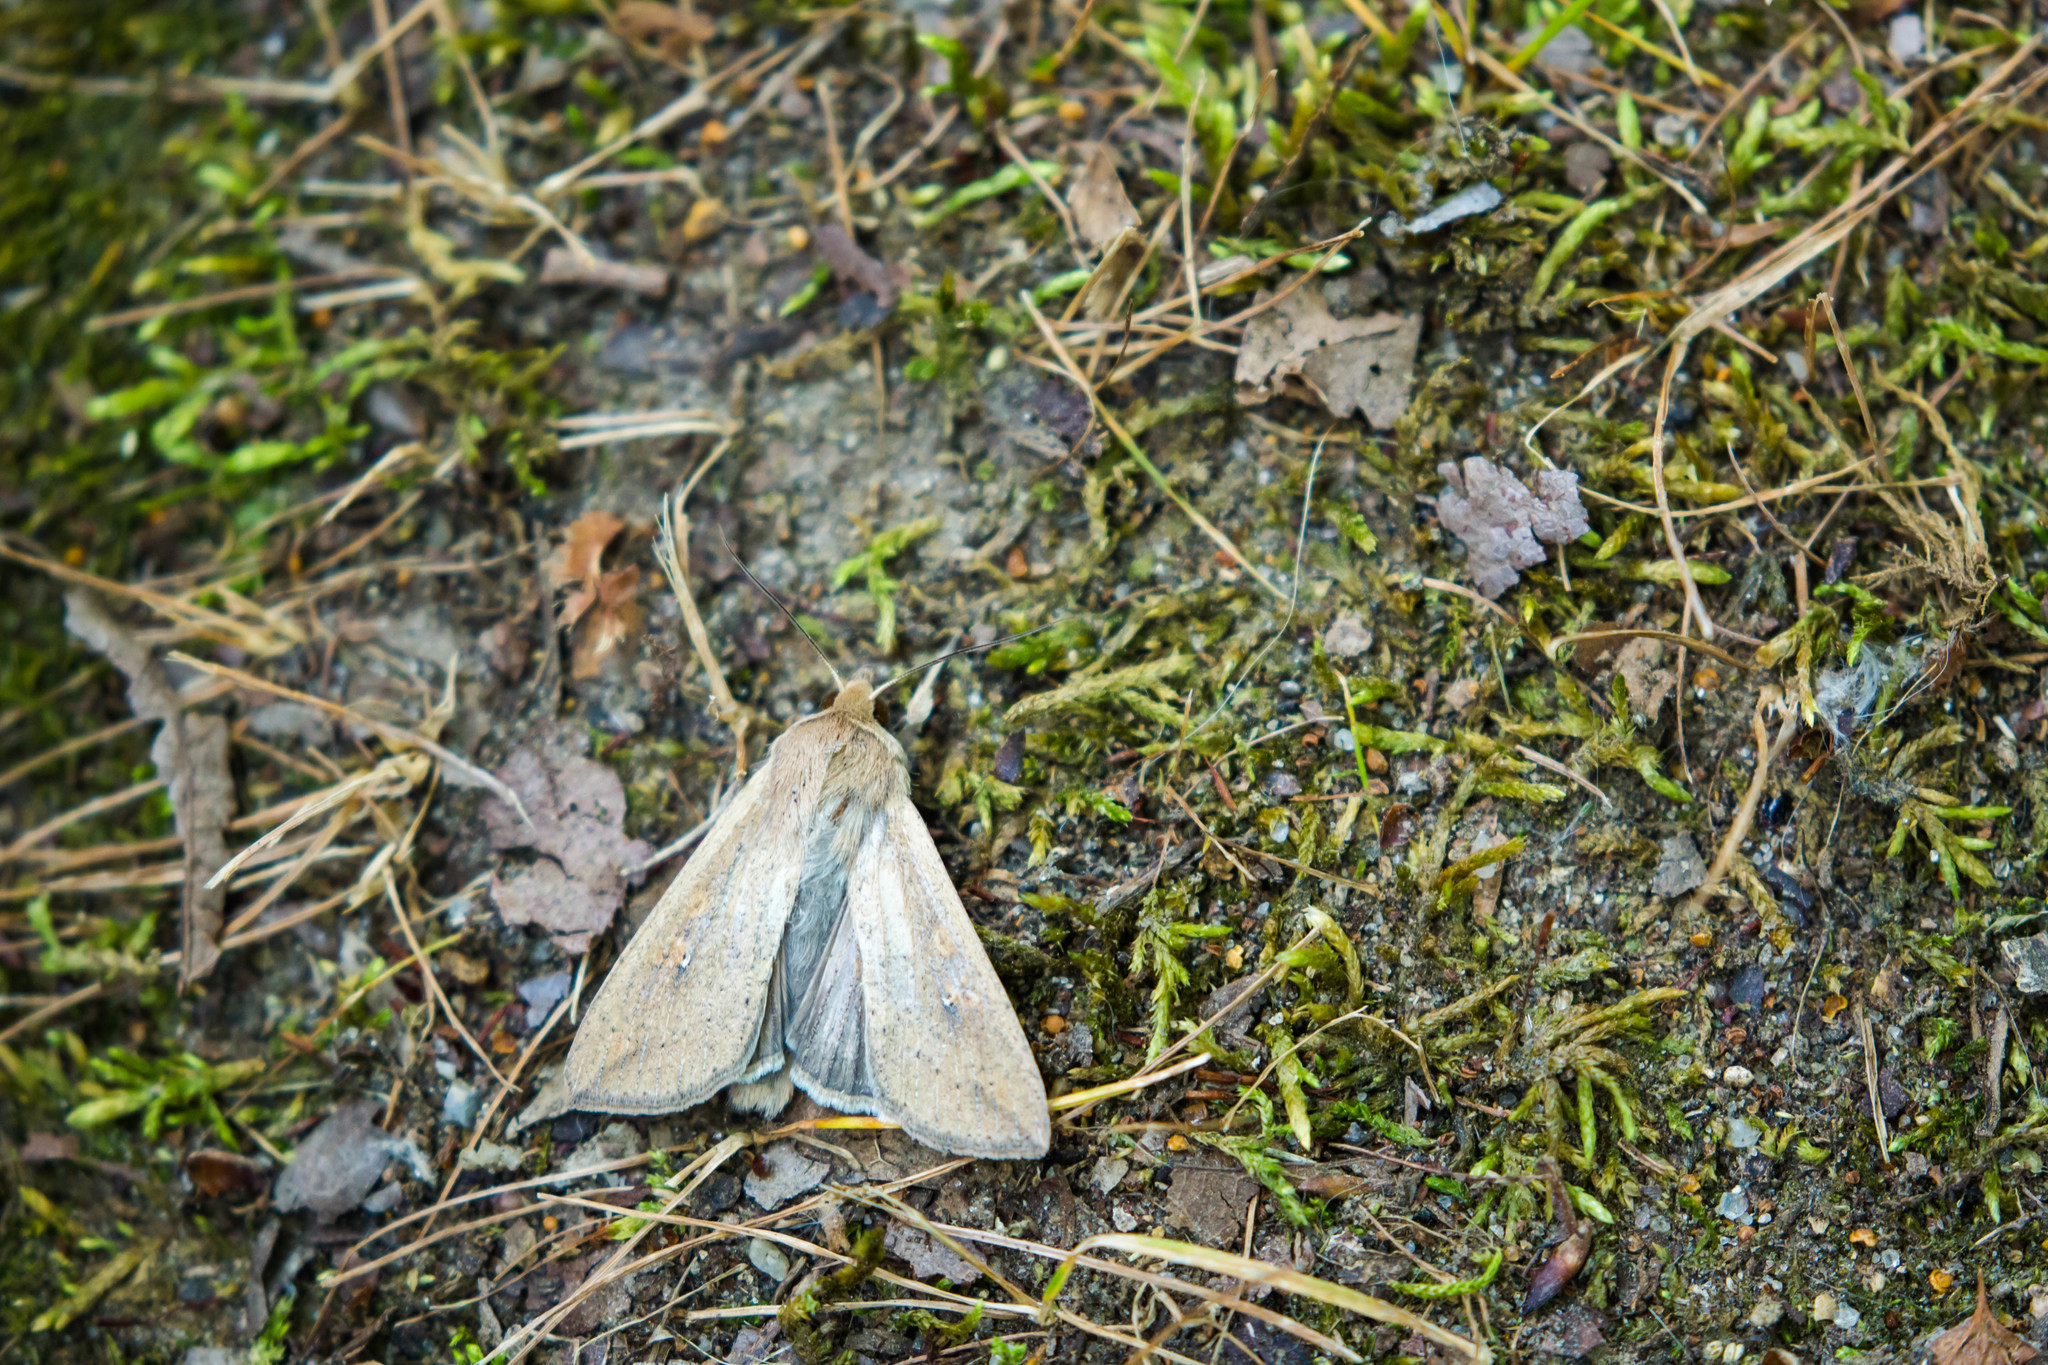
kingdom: Animalia
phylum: Arthropoda
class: Insecta
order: Lepidoptera
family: Noctuidae
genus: Mythimna
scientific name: Mythimna unipuncta
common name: White-speck
